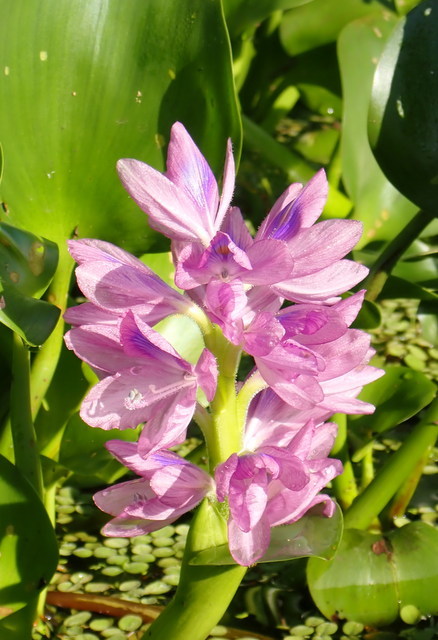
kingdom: Plantae
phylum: Tracheophyta
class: Liliopsida
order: Commelinales
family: Pontederiaceae
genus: Pontederia
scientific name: Pontederia crassipes
